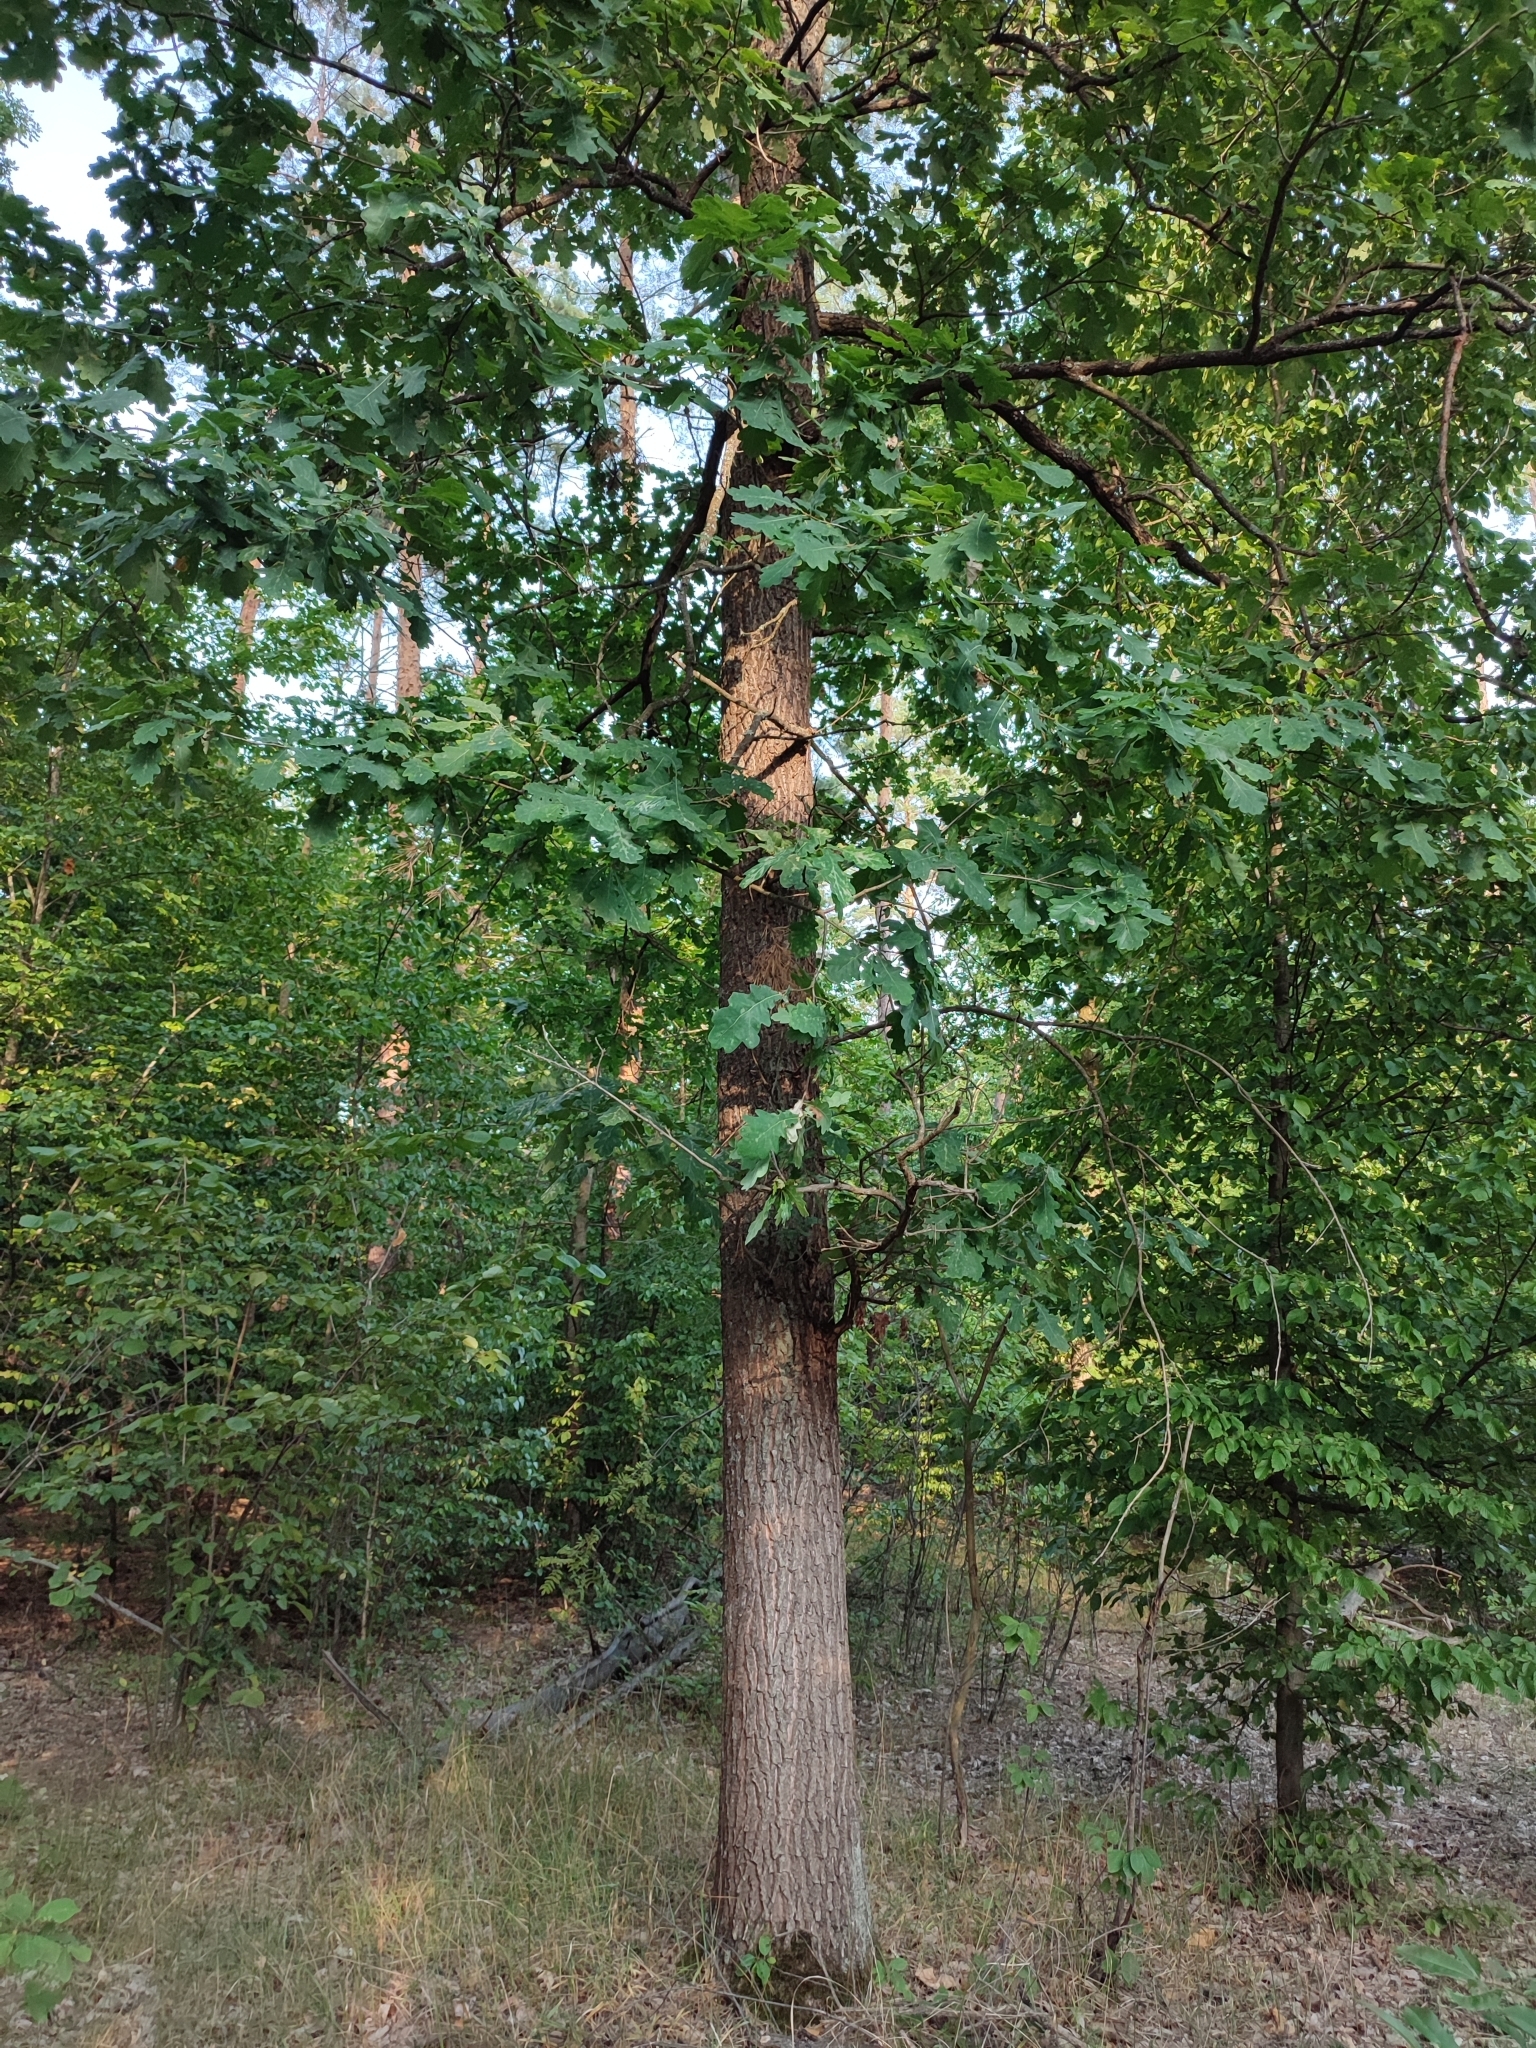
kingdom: Plantae
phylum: Tracheophyta
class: Magnoliopsida
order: Fagales
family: Fagaceae
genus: Quercus
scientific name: Quercus robur
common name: Pedunculate oak
